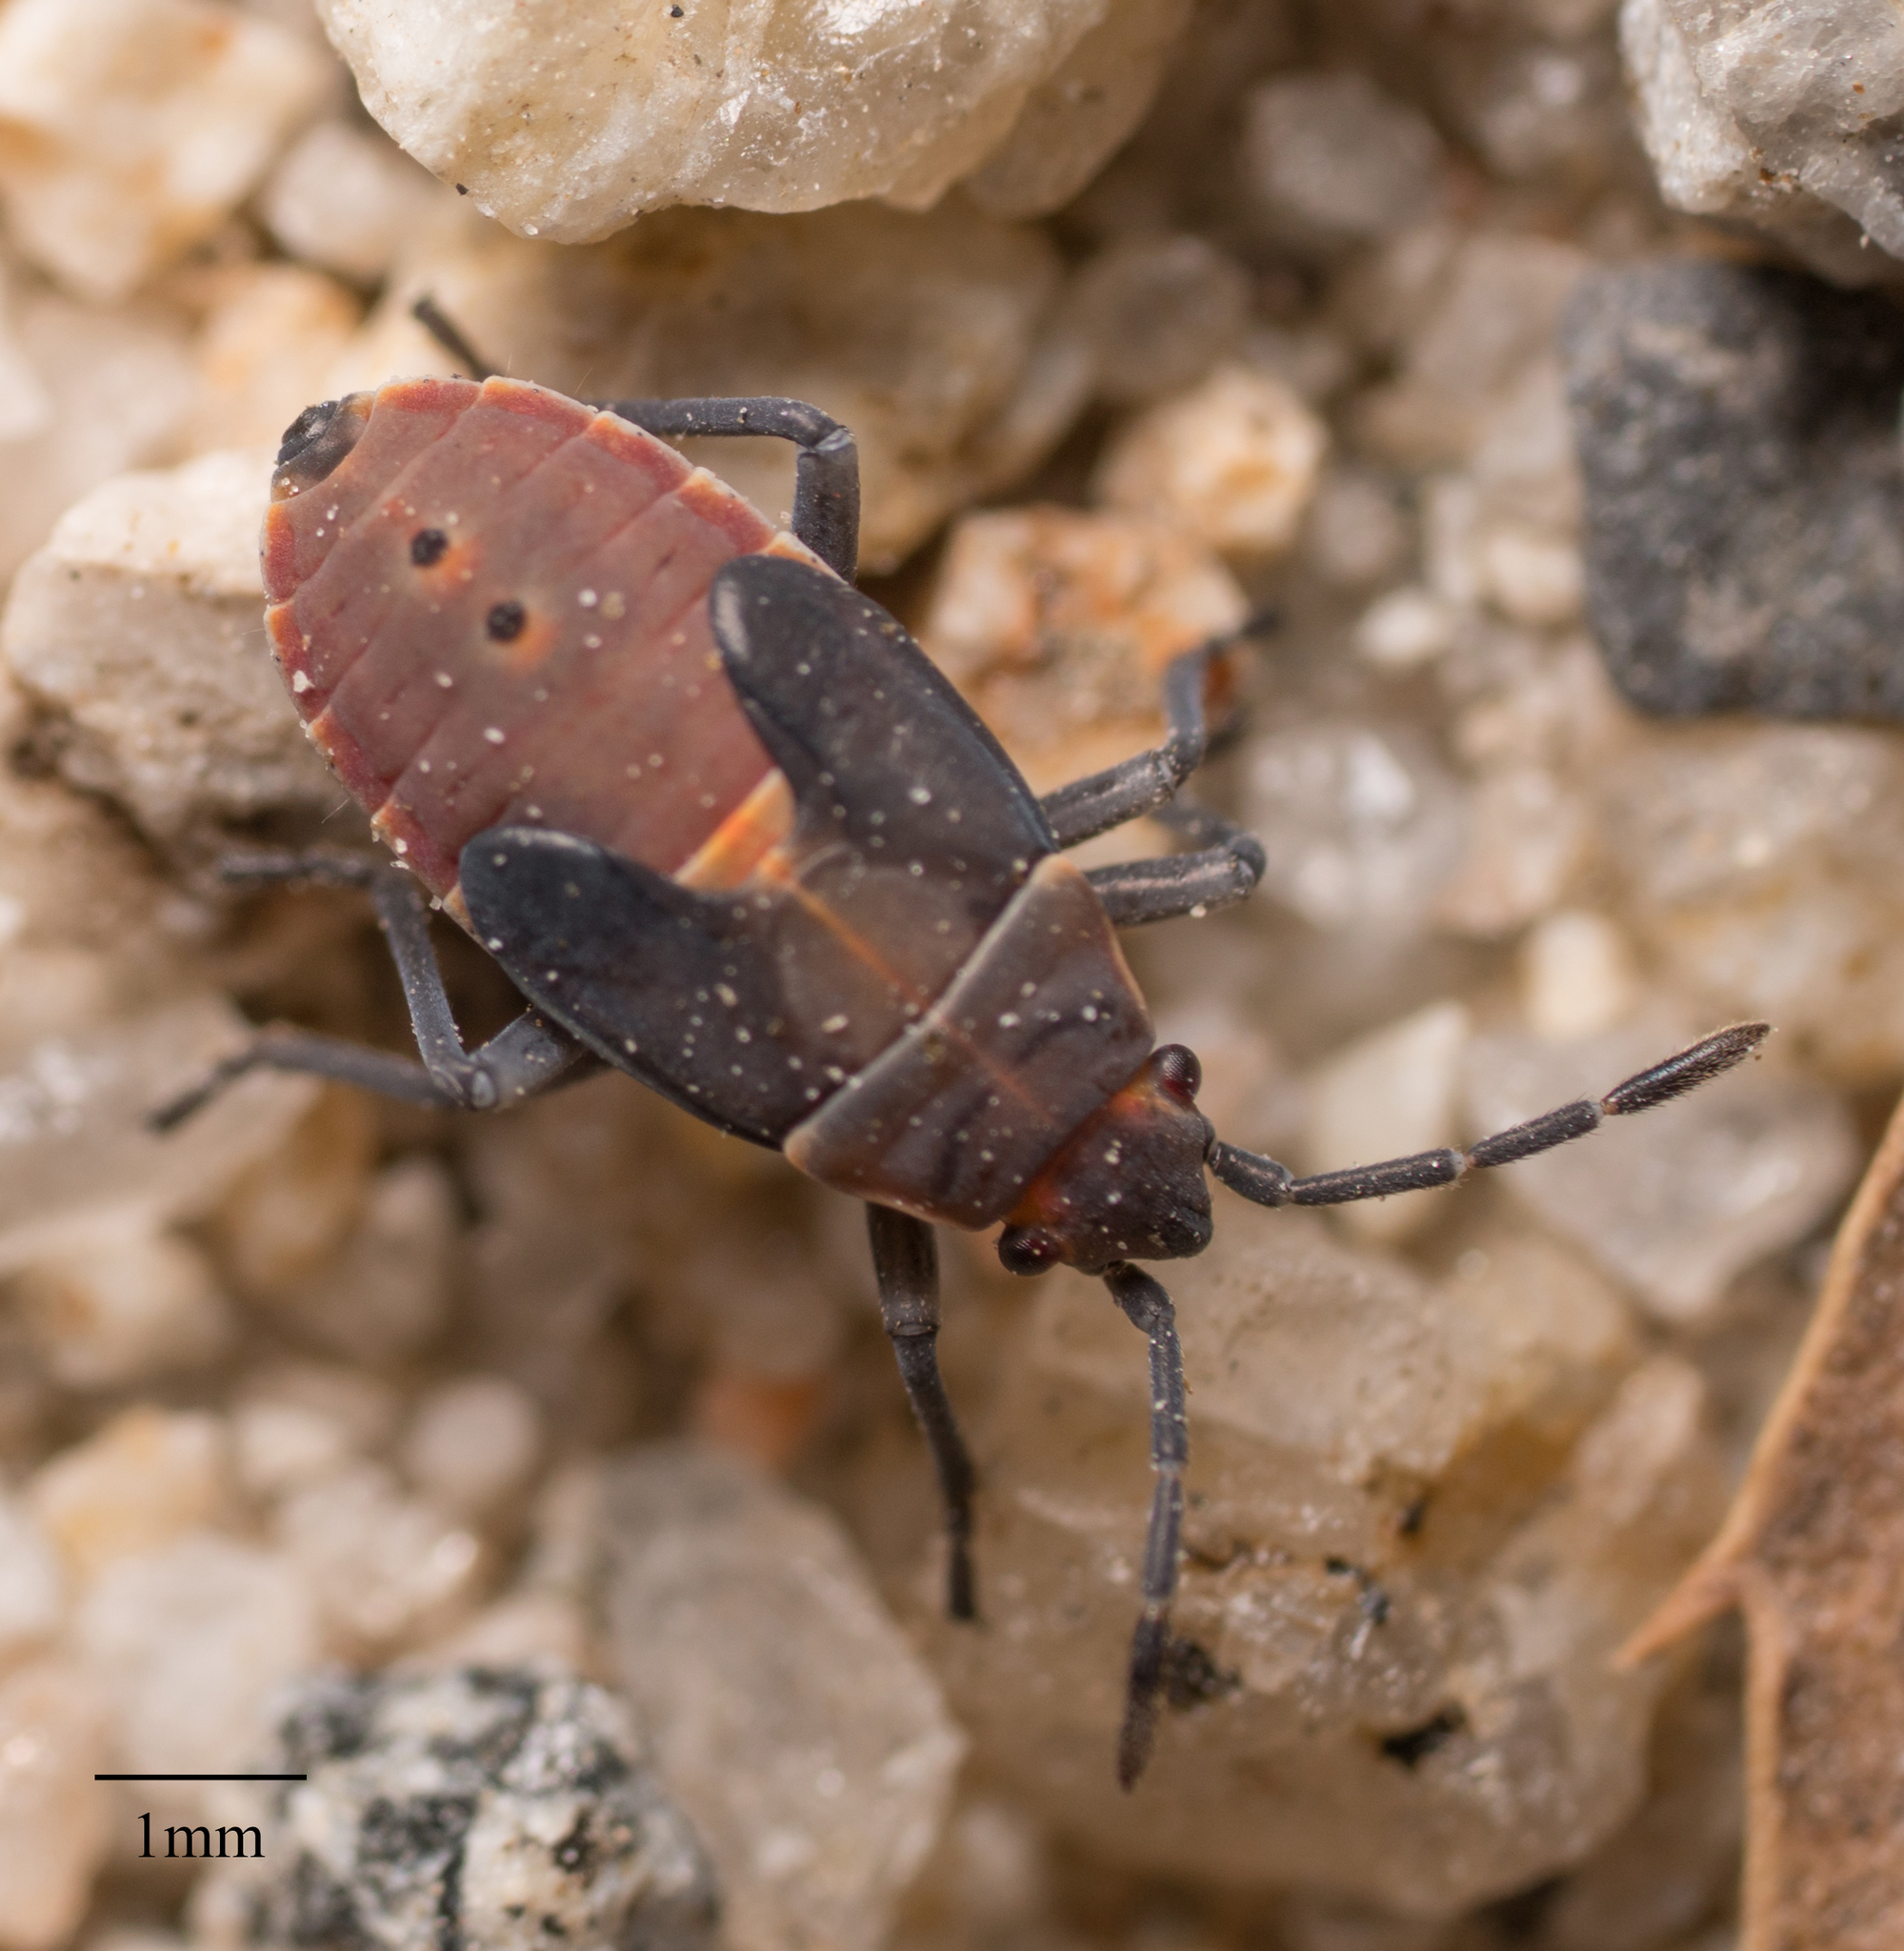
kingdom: Animalia
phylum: Arthropoda
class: Insecta
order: Hemiptera
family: Lygaeidae
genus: Neacoryphus
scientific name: Neacoryphus bicrucis
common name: Lygaeid bug
